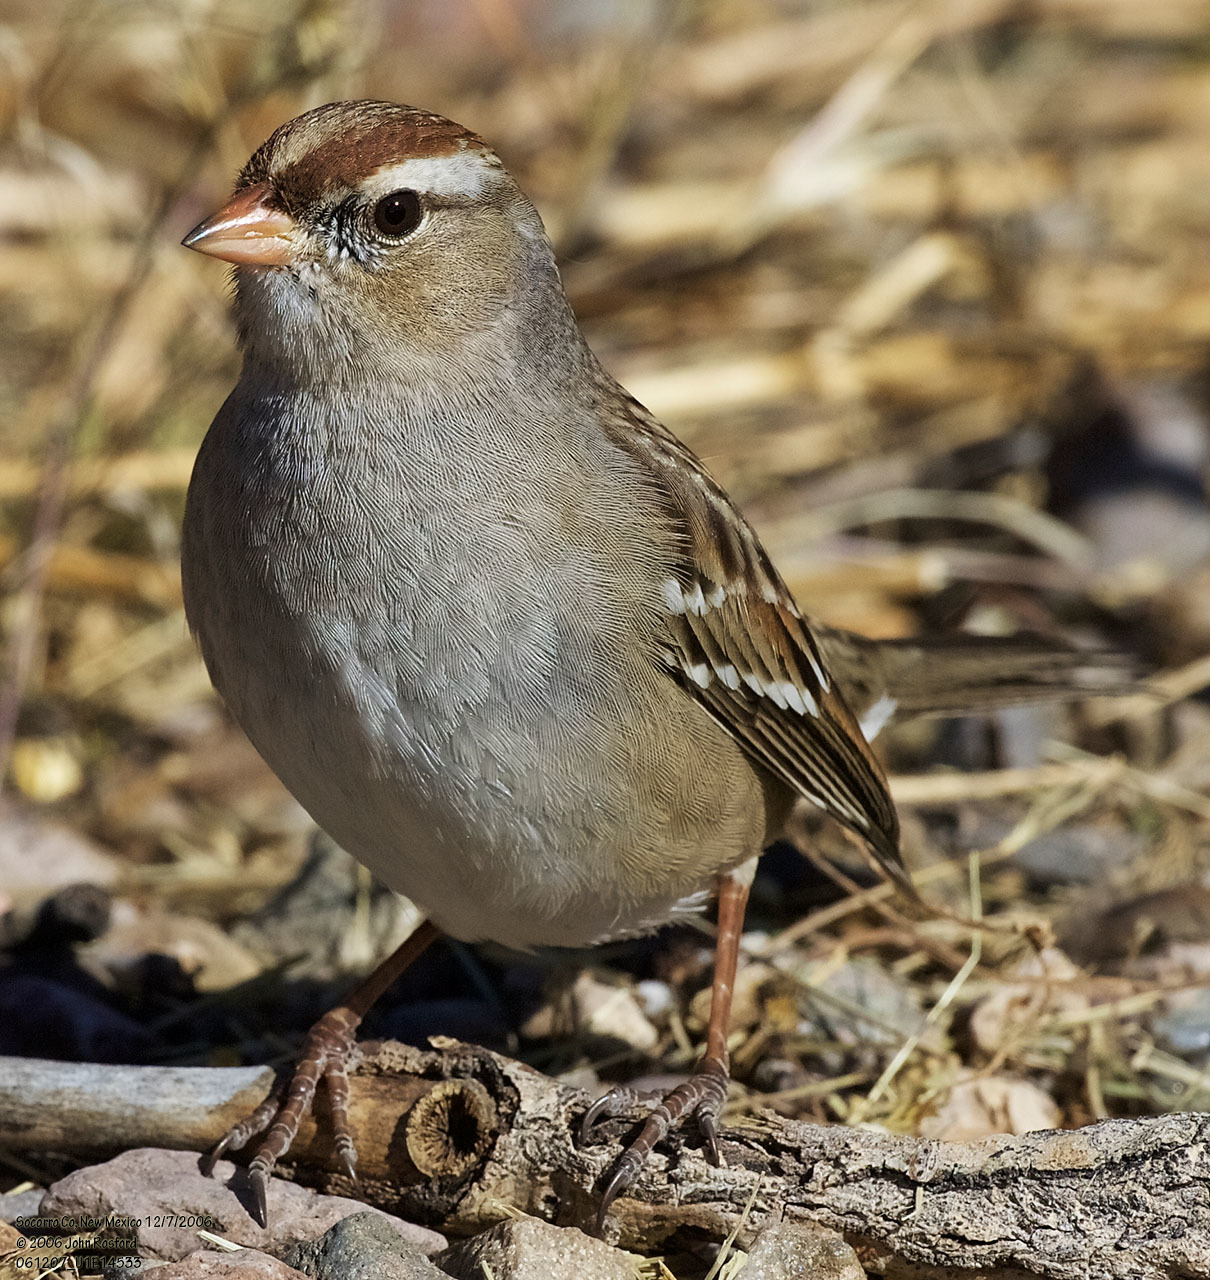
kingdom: Animalia
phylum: Chordata
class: Aves
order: Passeriformes
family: Passerellidae
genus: Zonotrichia
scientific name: Zonotrichia leucophrys
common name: White-crowned sparrow
